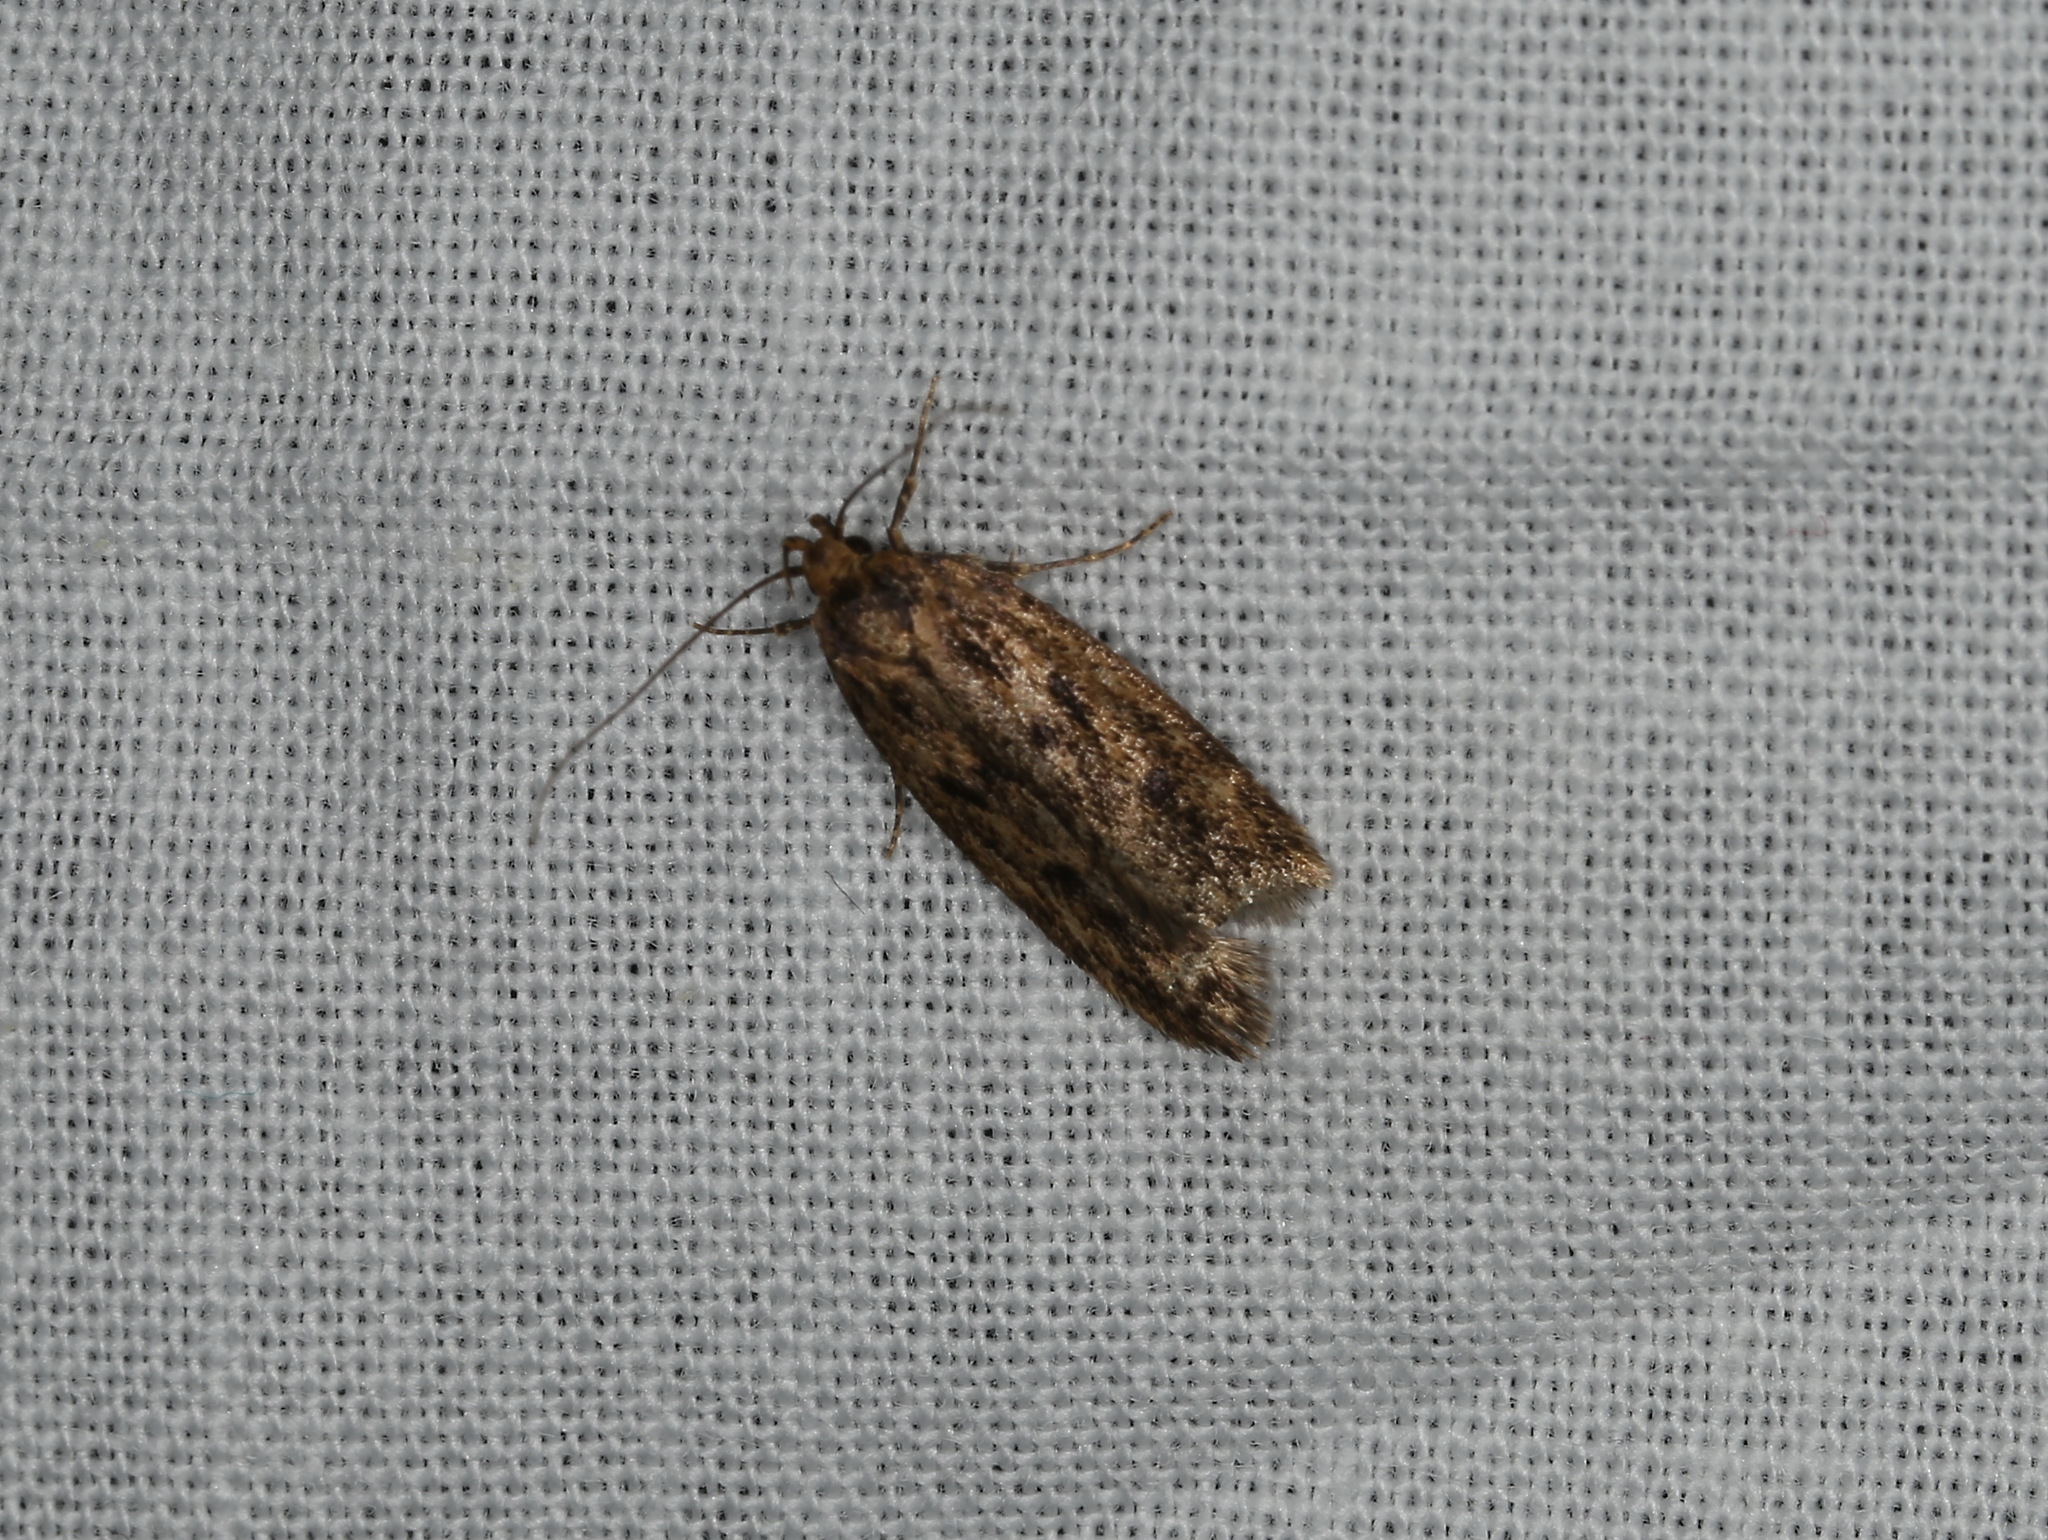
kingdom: Animalia
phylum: Arthropoda
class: Insecta
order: Lepidoptera
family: Oecophoridae
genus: Hofmannophila
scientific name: Hofmannophila pseudospretella
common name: Brown house moth
